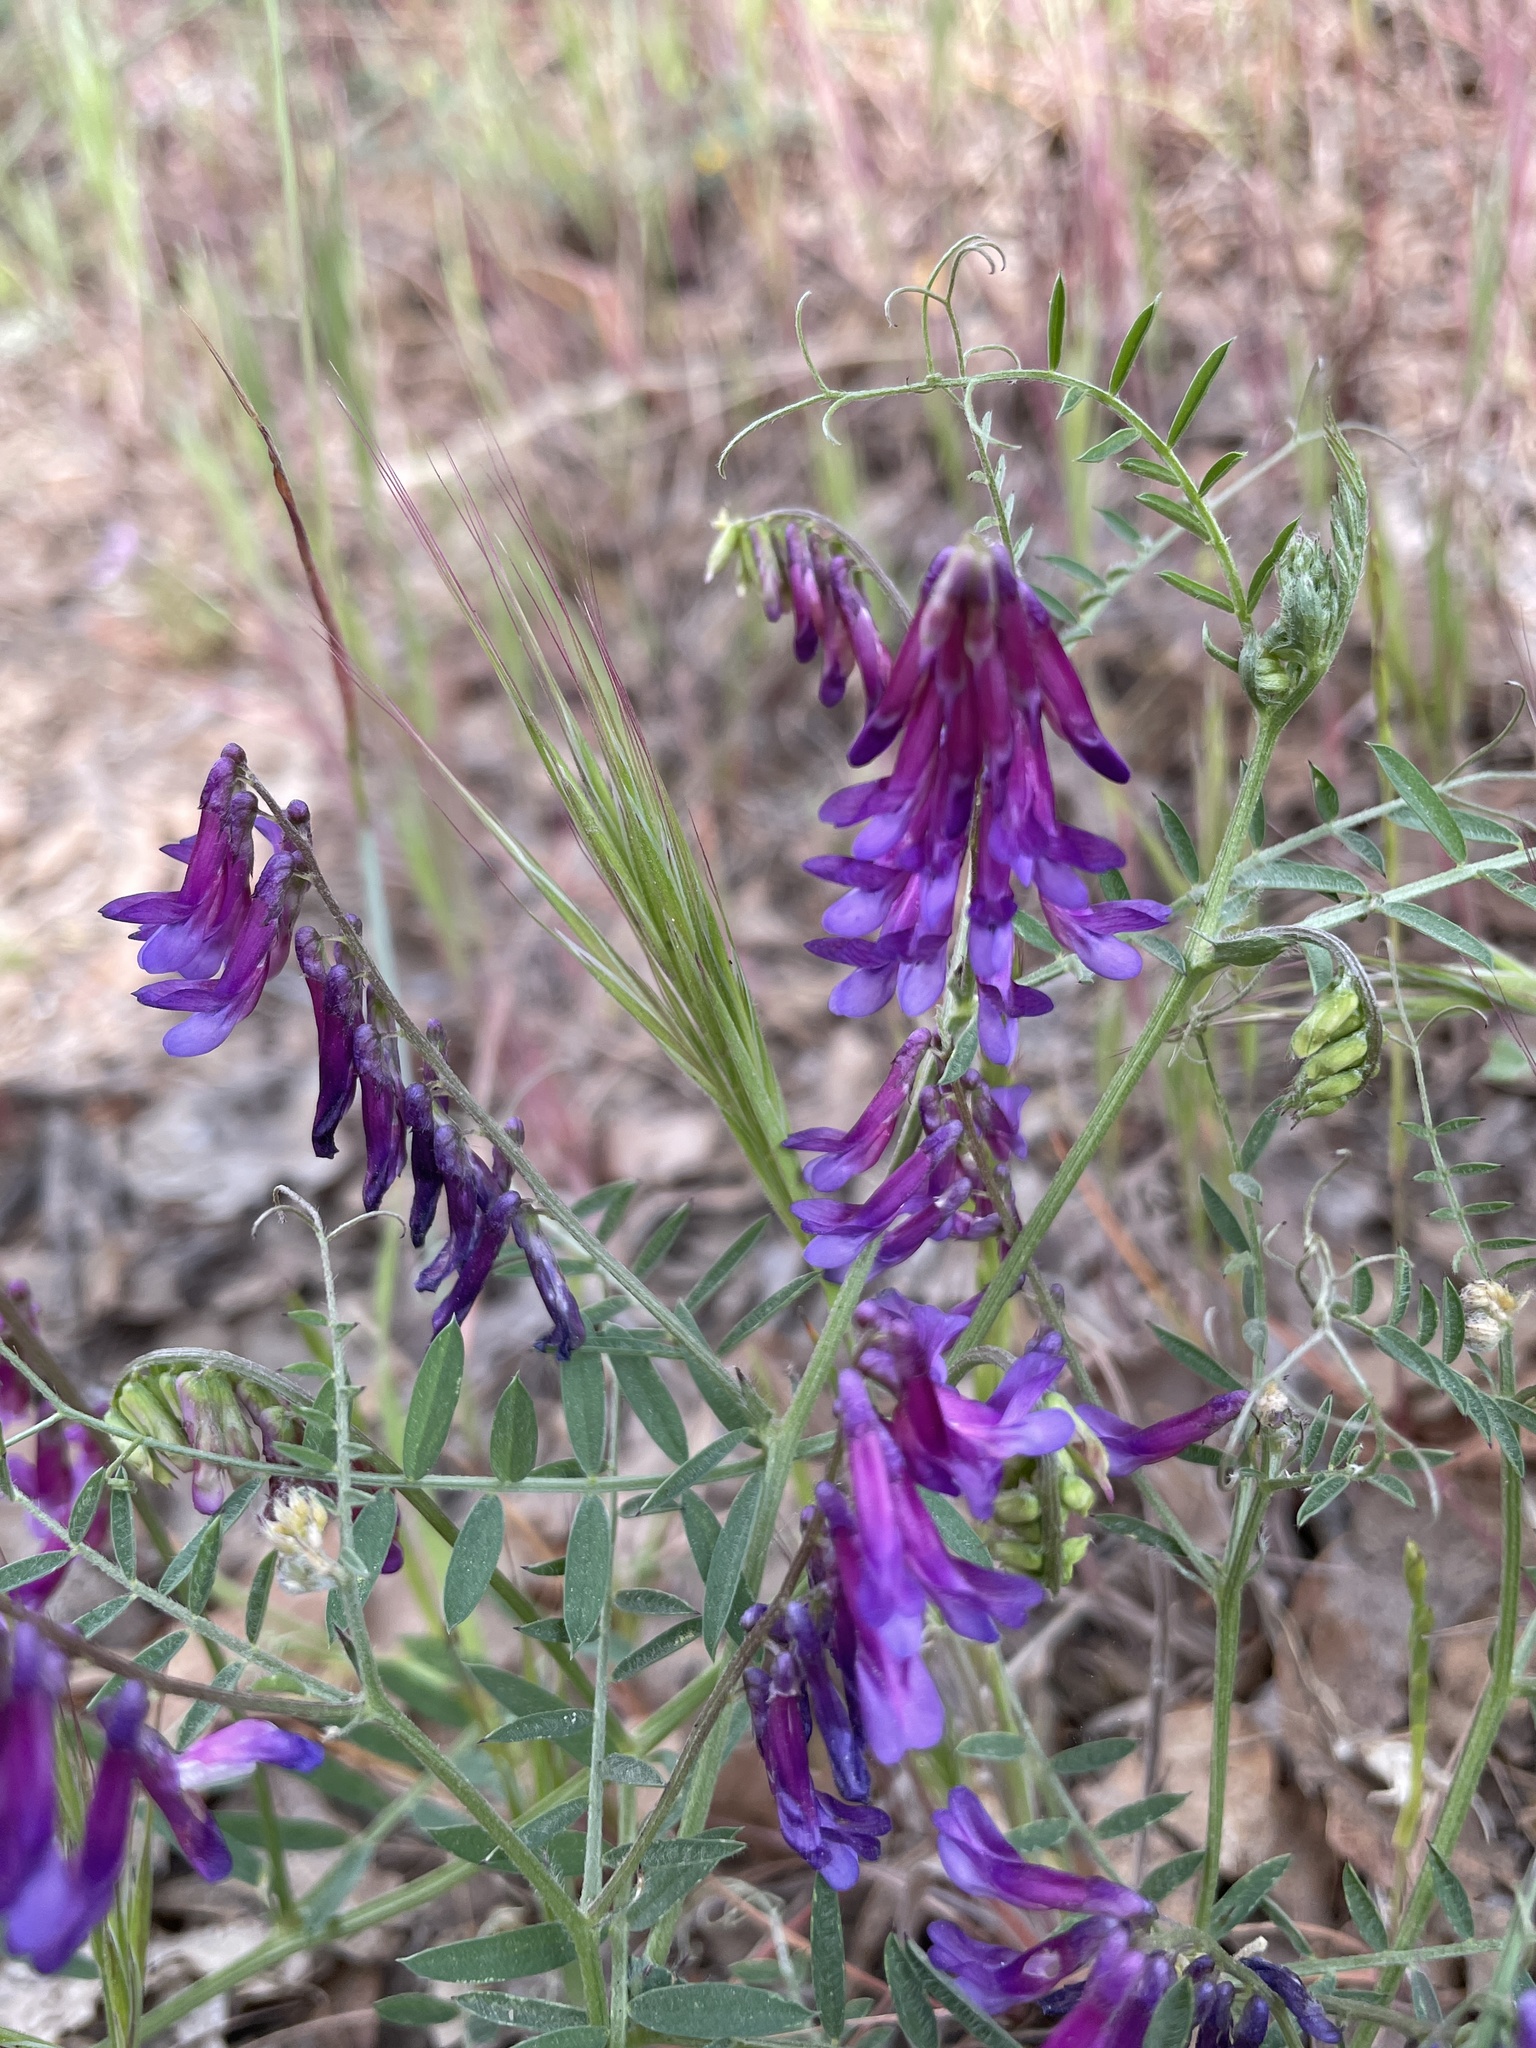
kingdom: Plantae
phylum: Tracheophyta
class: Magnoliopsida
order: Fabales
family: Fabaceae
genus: Vicia
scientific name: Vicia villosa
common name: Fodder vetch
